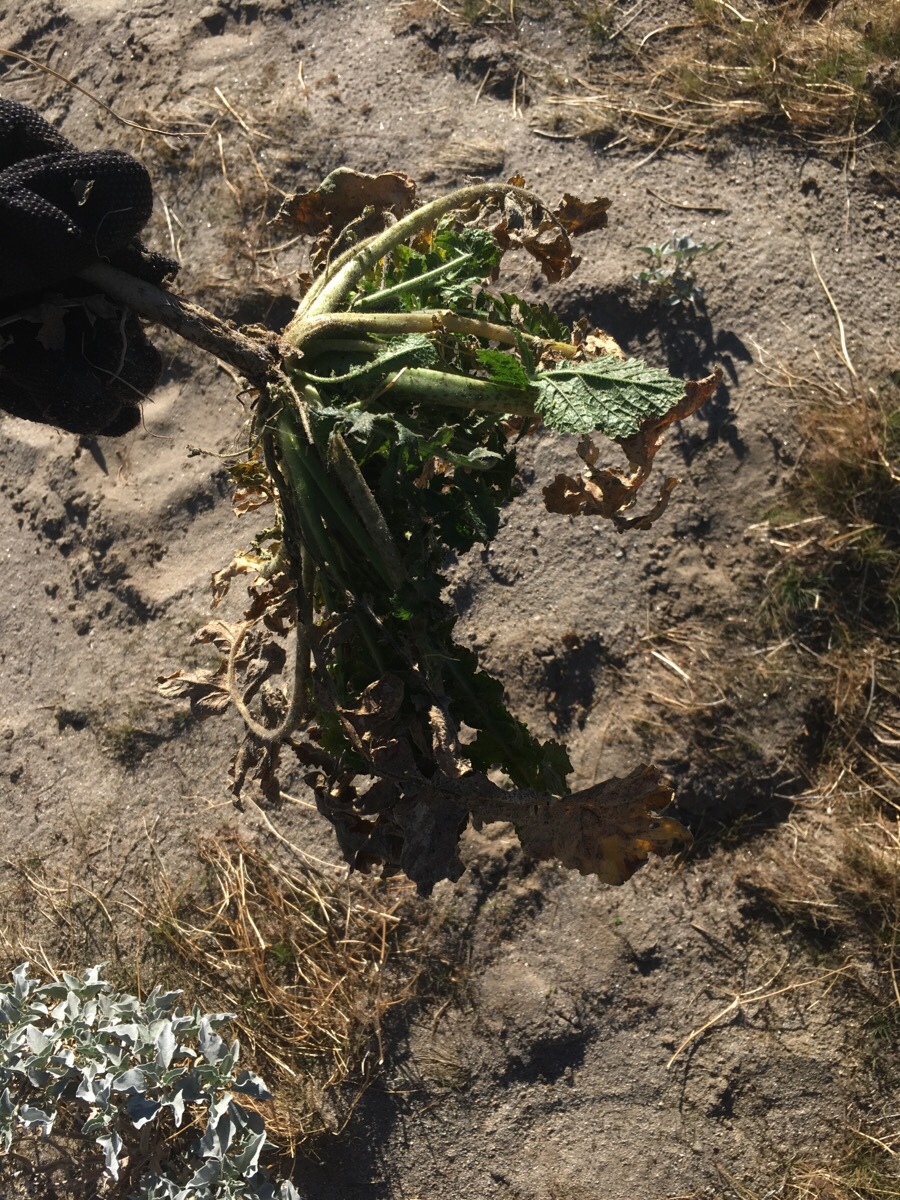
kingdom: Plantae
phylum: Tracheophyta
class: Magnoliopsida
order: Brassicales
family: Brassicaceae
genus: Brassica
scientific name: Brassica tournefortii
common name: Pale cabbage
